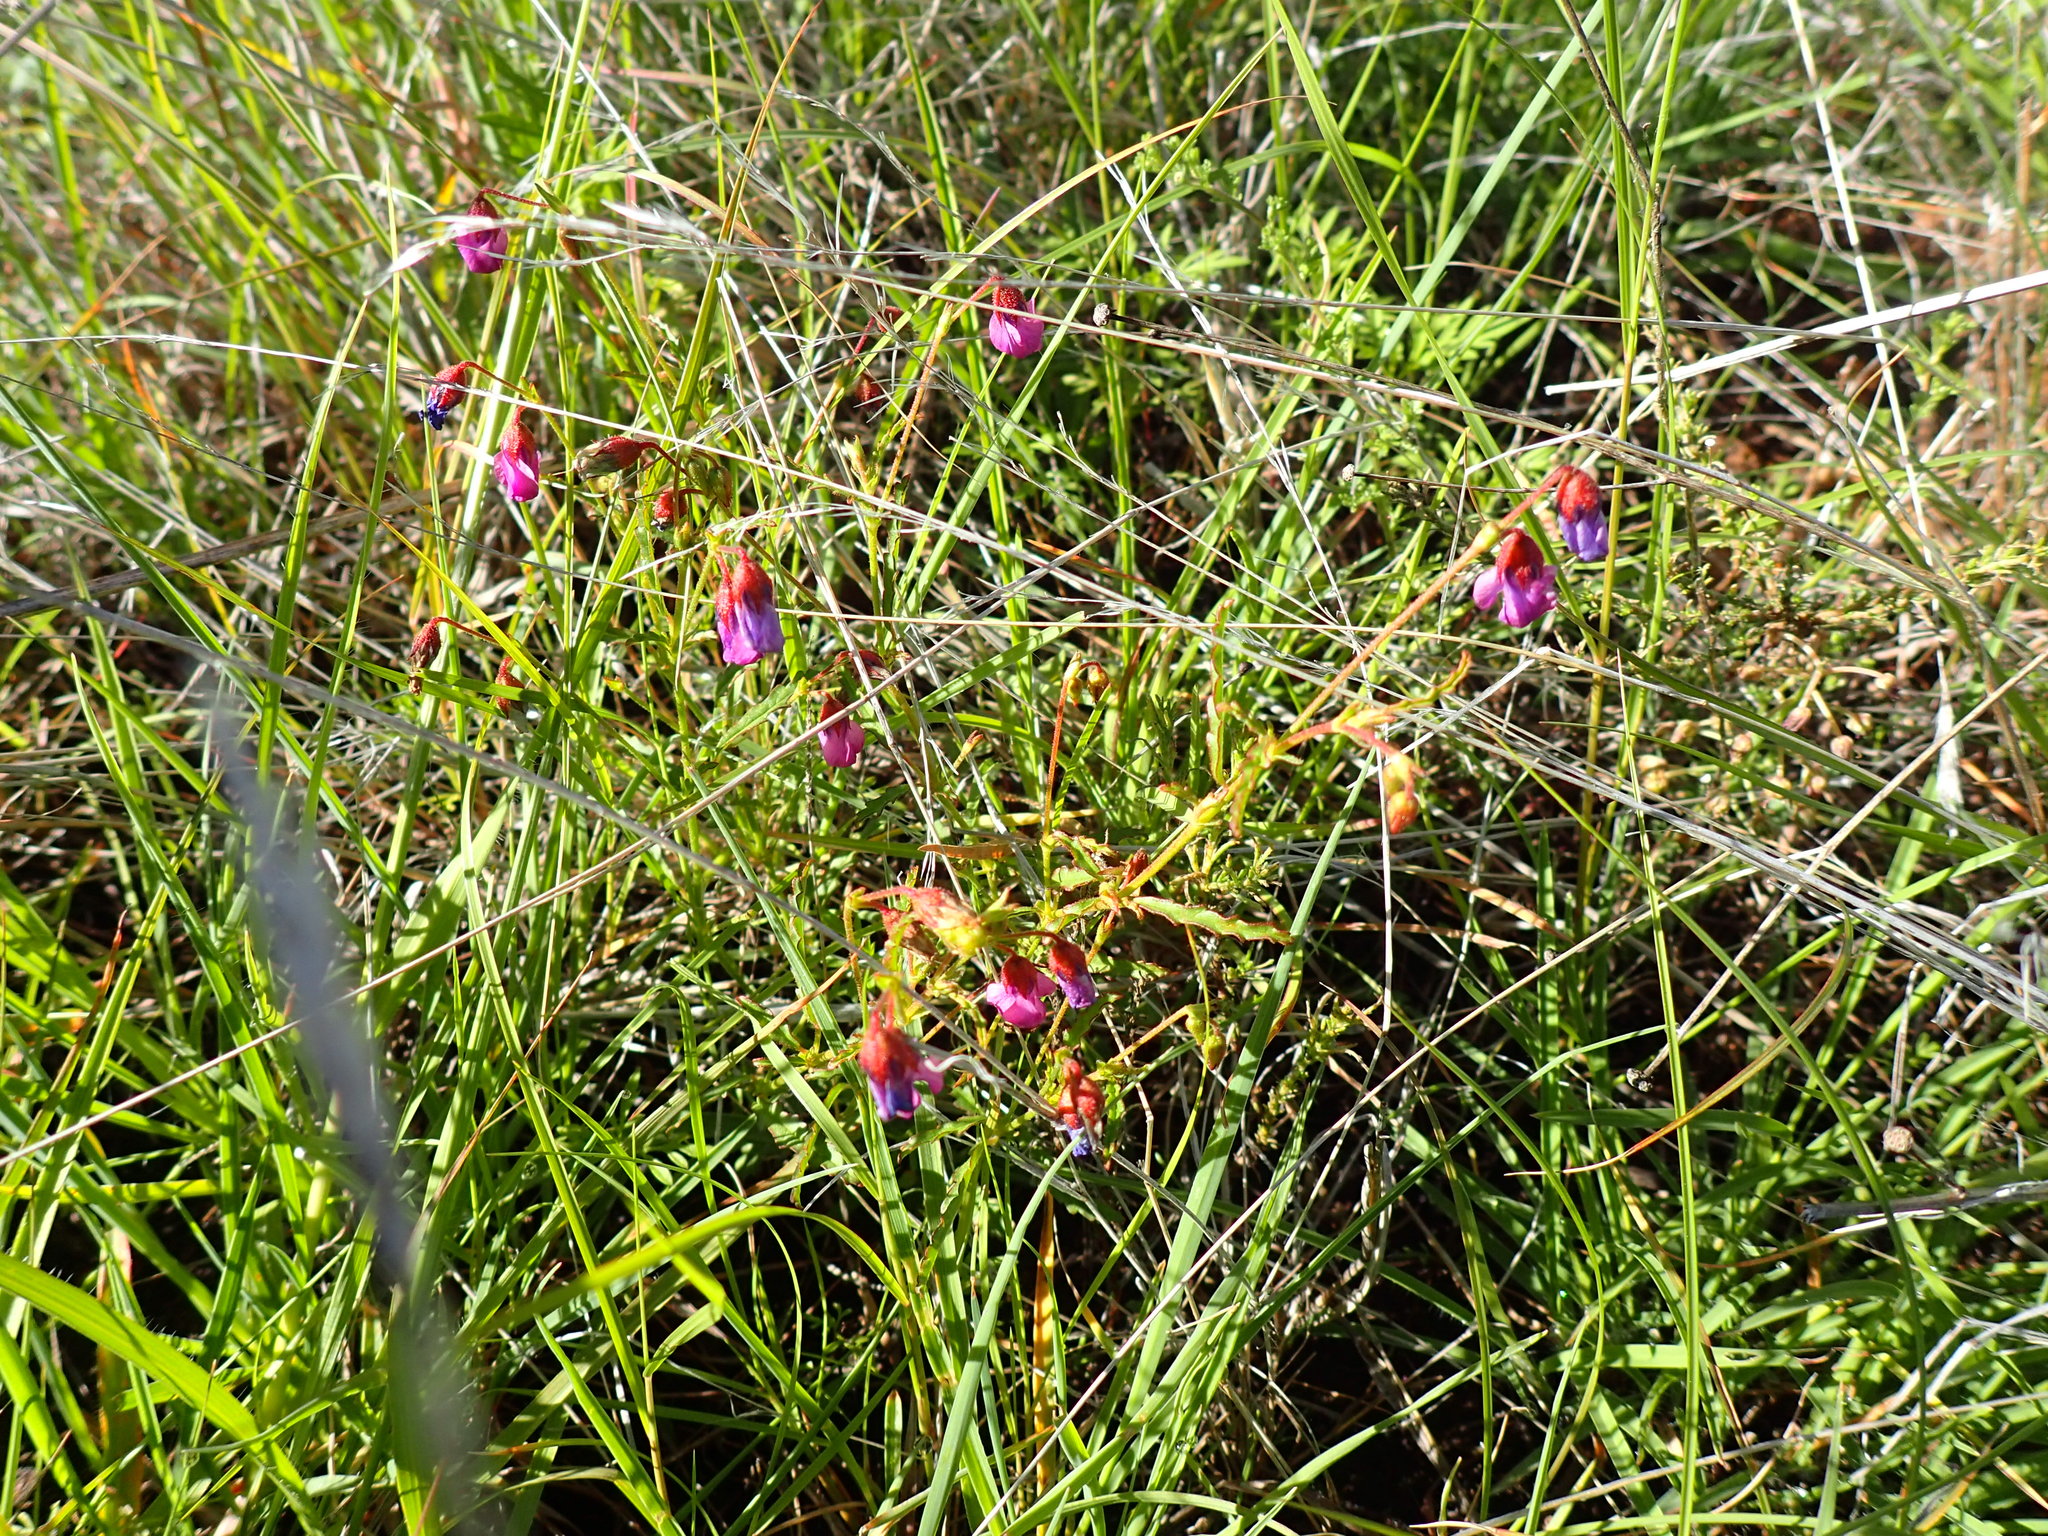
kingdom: Plantae
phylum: Tracheophyta
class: Magnoliopsida
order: Malvales
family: Malvaceae
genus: Hermannia
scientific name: Hermannia coccocarpa
